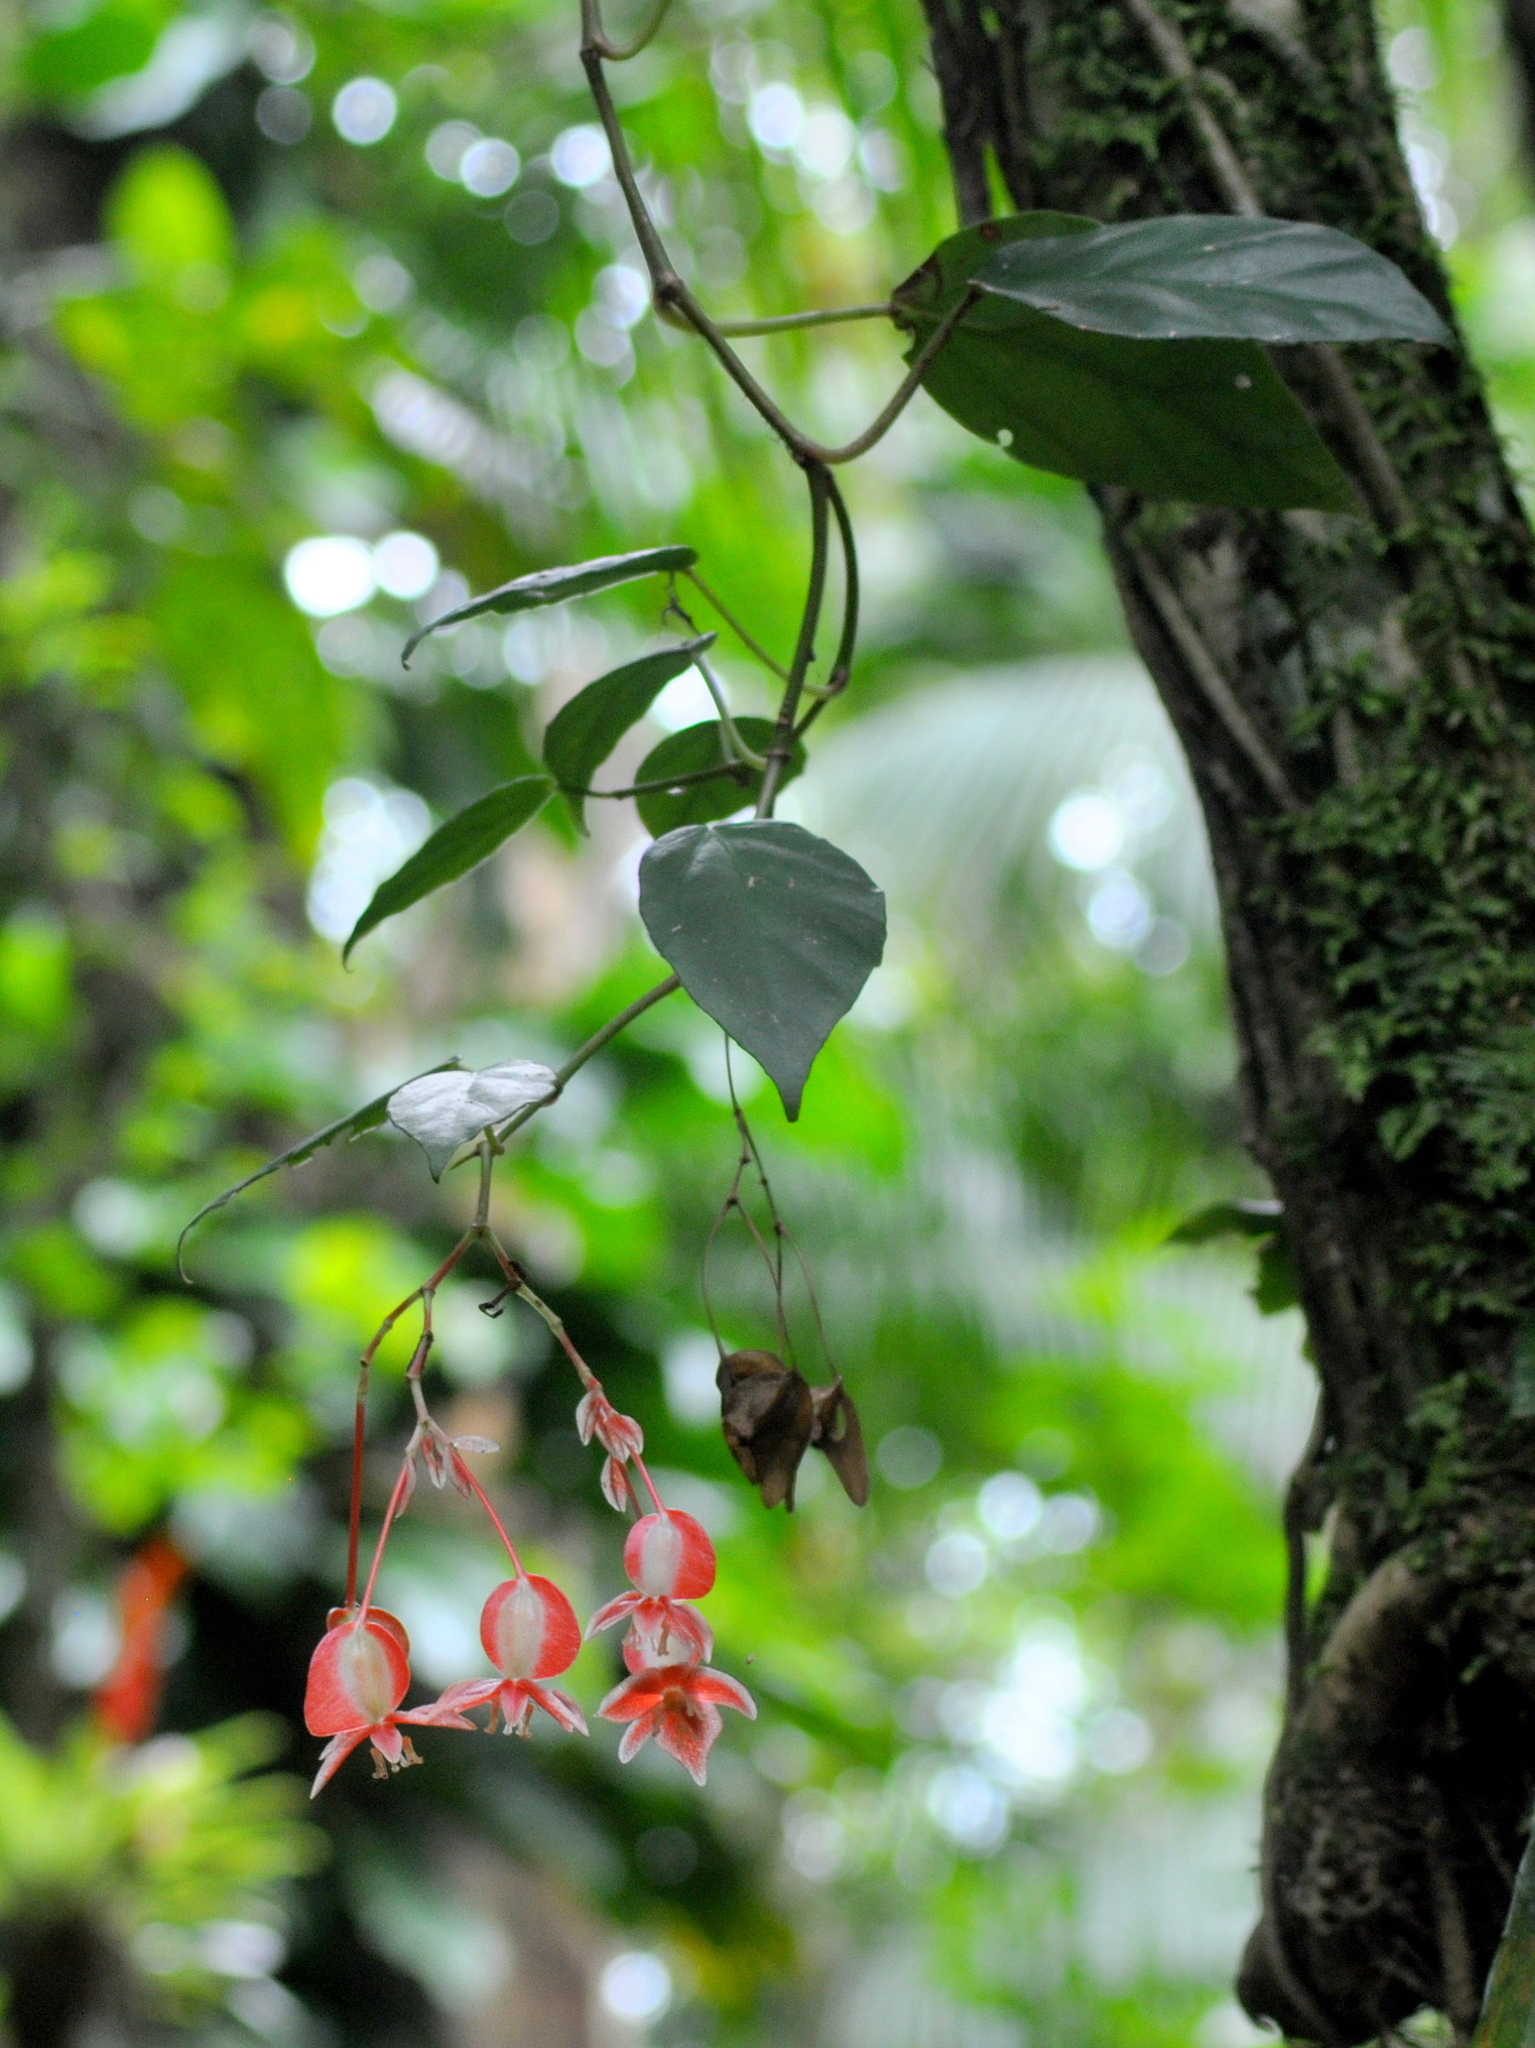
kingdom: Plantae
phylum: Tracheophyta
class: Magnoliopsida
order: Cucurbitales
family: Begoniaceae
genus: Begonia
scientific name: Begonia radicans
